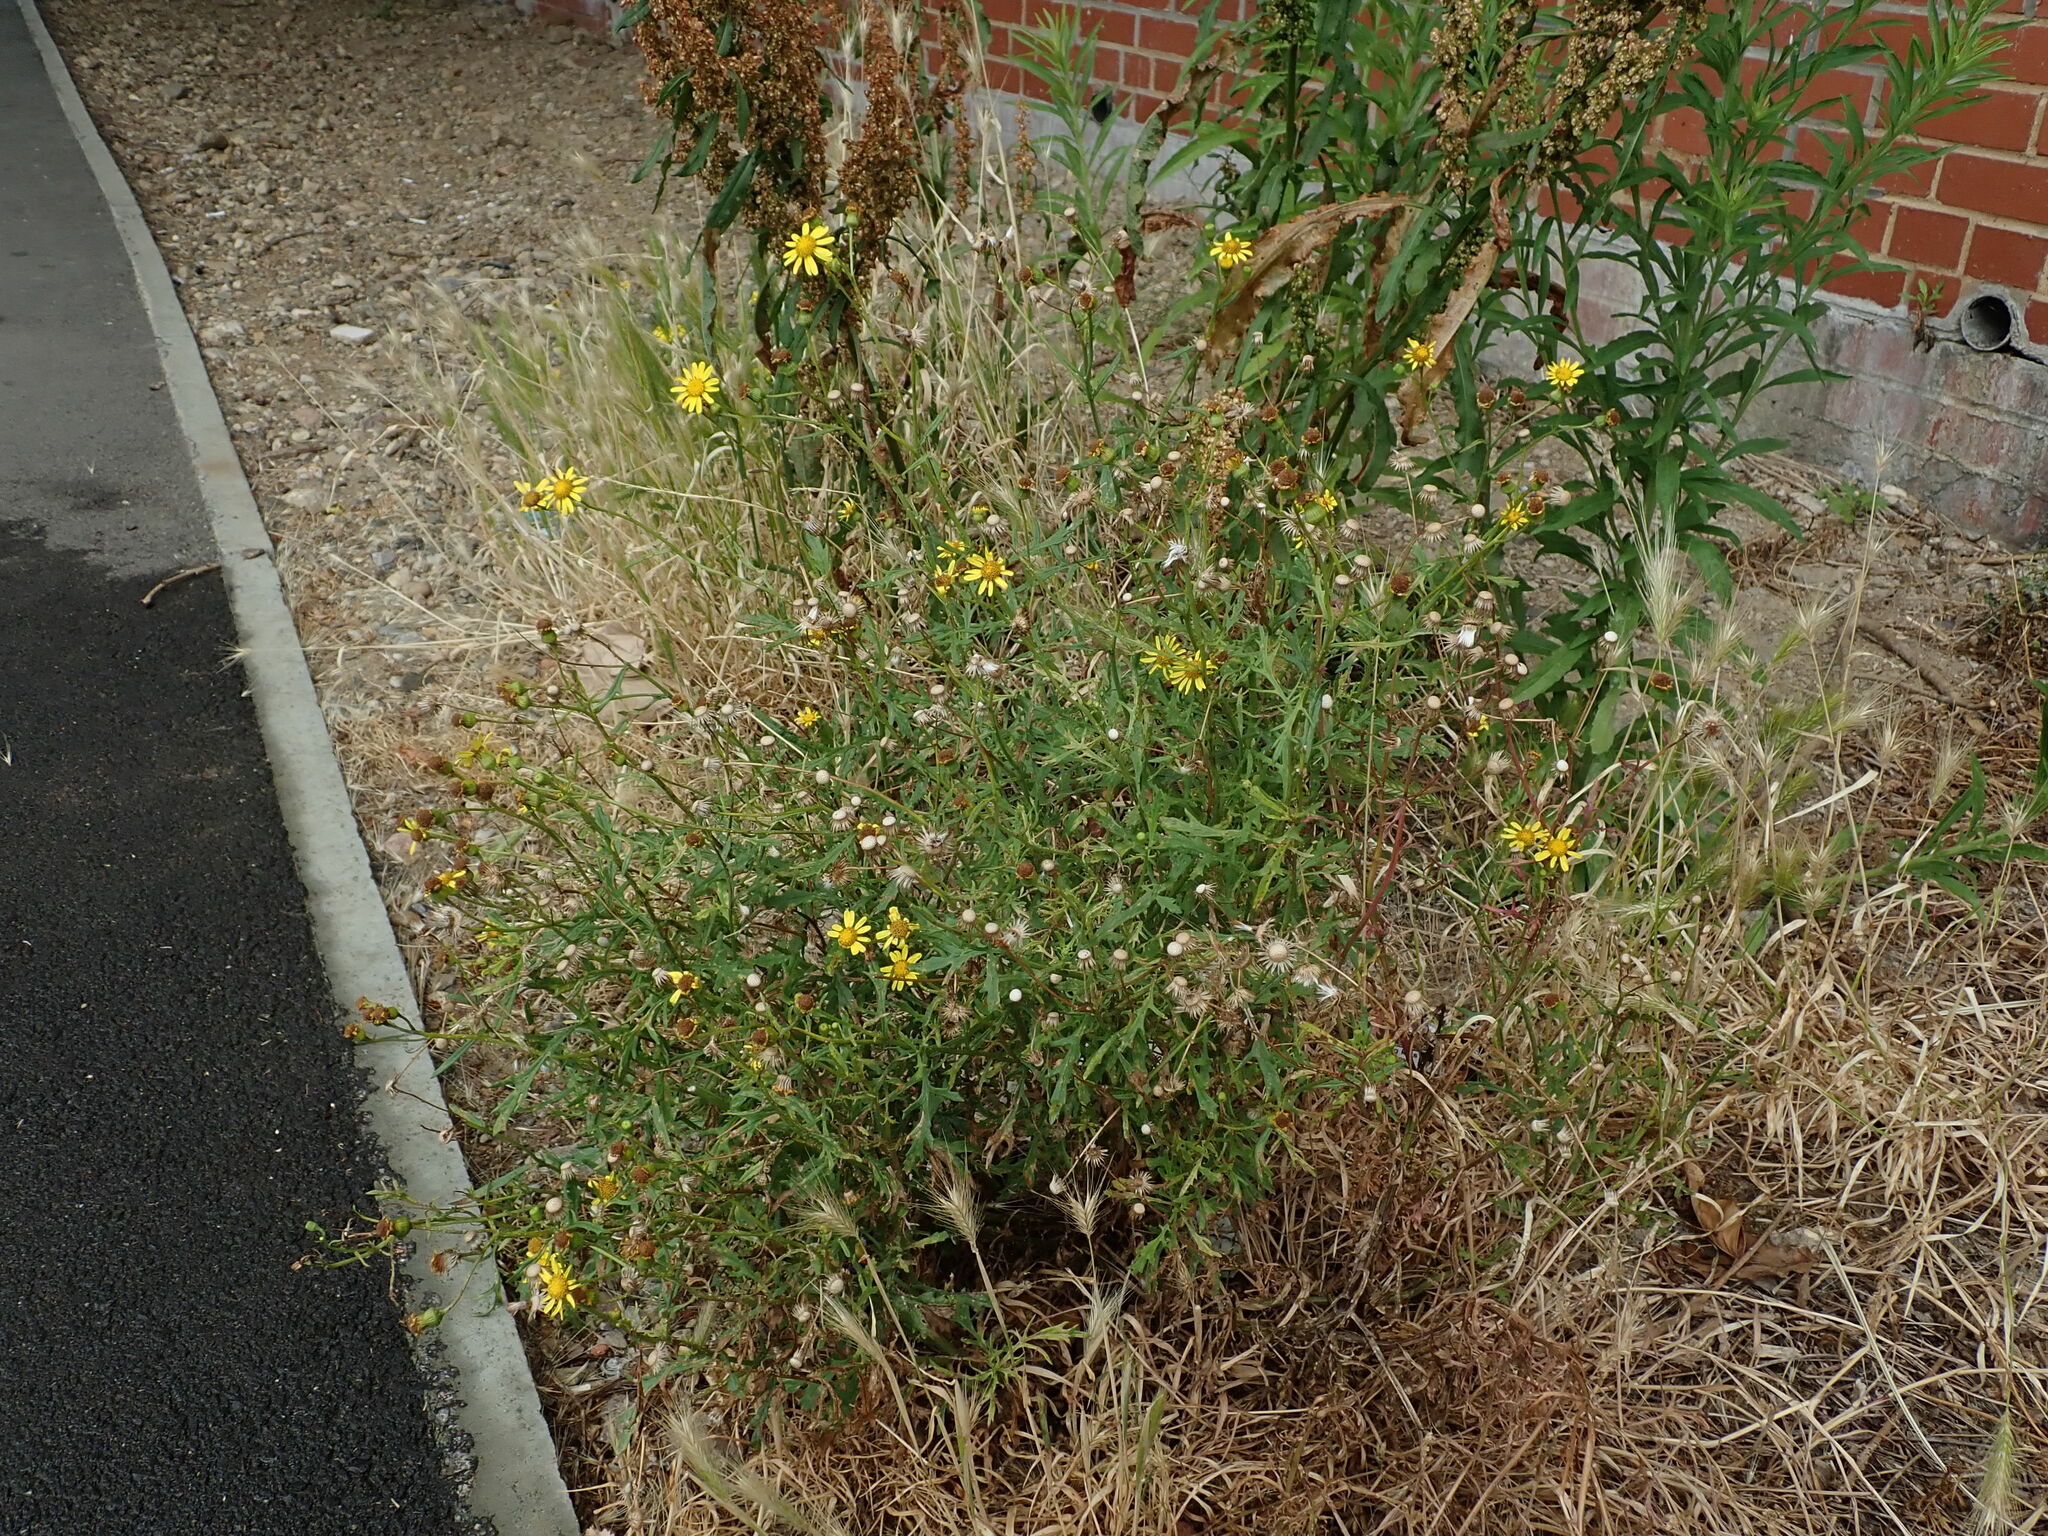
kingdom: Plantae
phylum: Tracheophyta
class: Magnoliopsida
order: Asterales
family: Asteraceae
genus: Senecio
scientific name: Senecio squalidus
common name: Oxford ragwort
